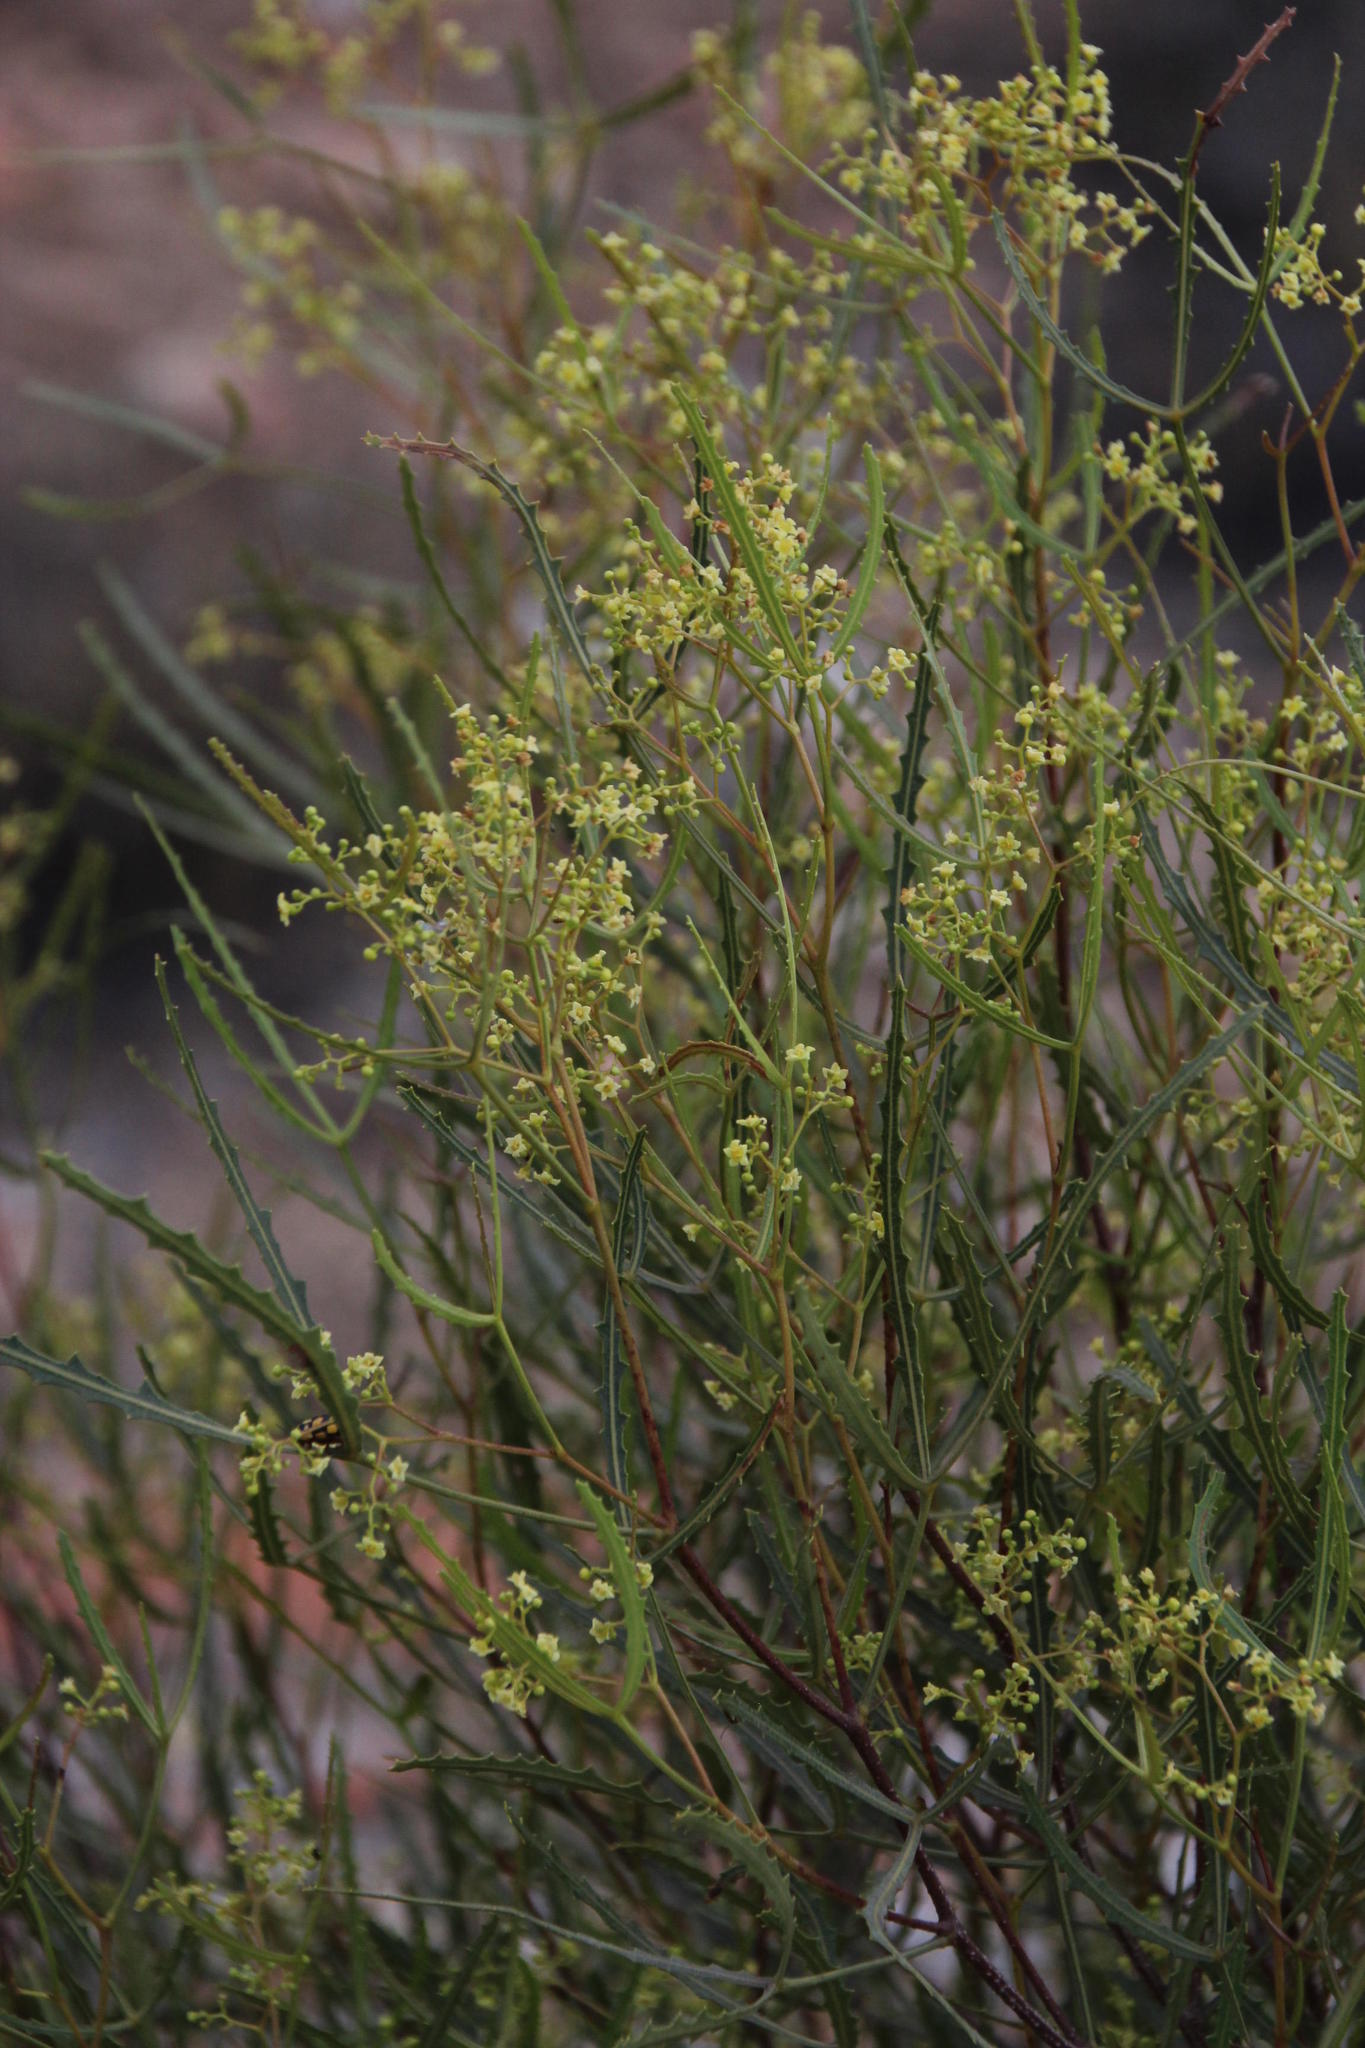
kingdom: Plantae
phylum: Tracheophyta
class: Magnoliopsida
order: Sapindales
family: Anacardiaceae
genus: Searsia
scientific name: Searsia erosa
